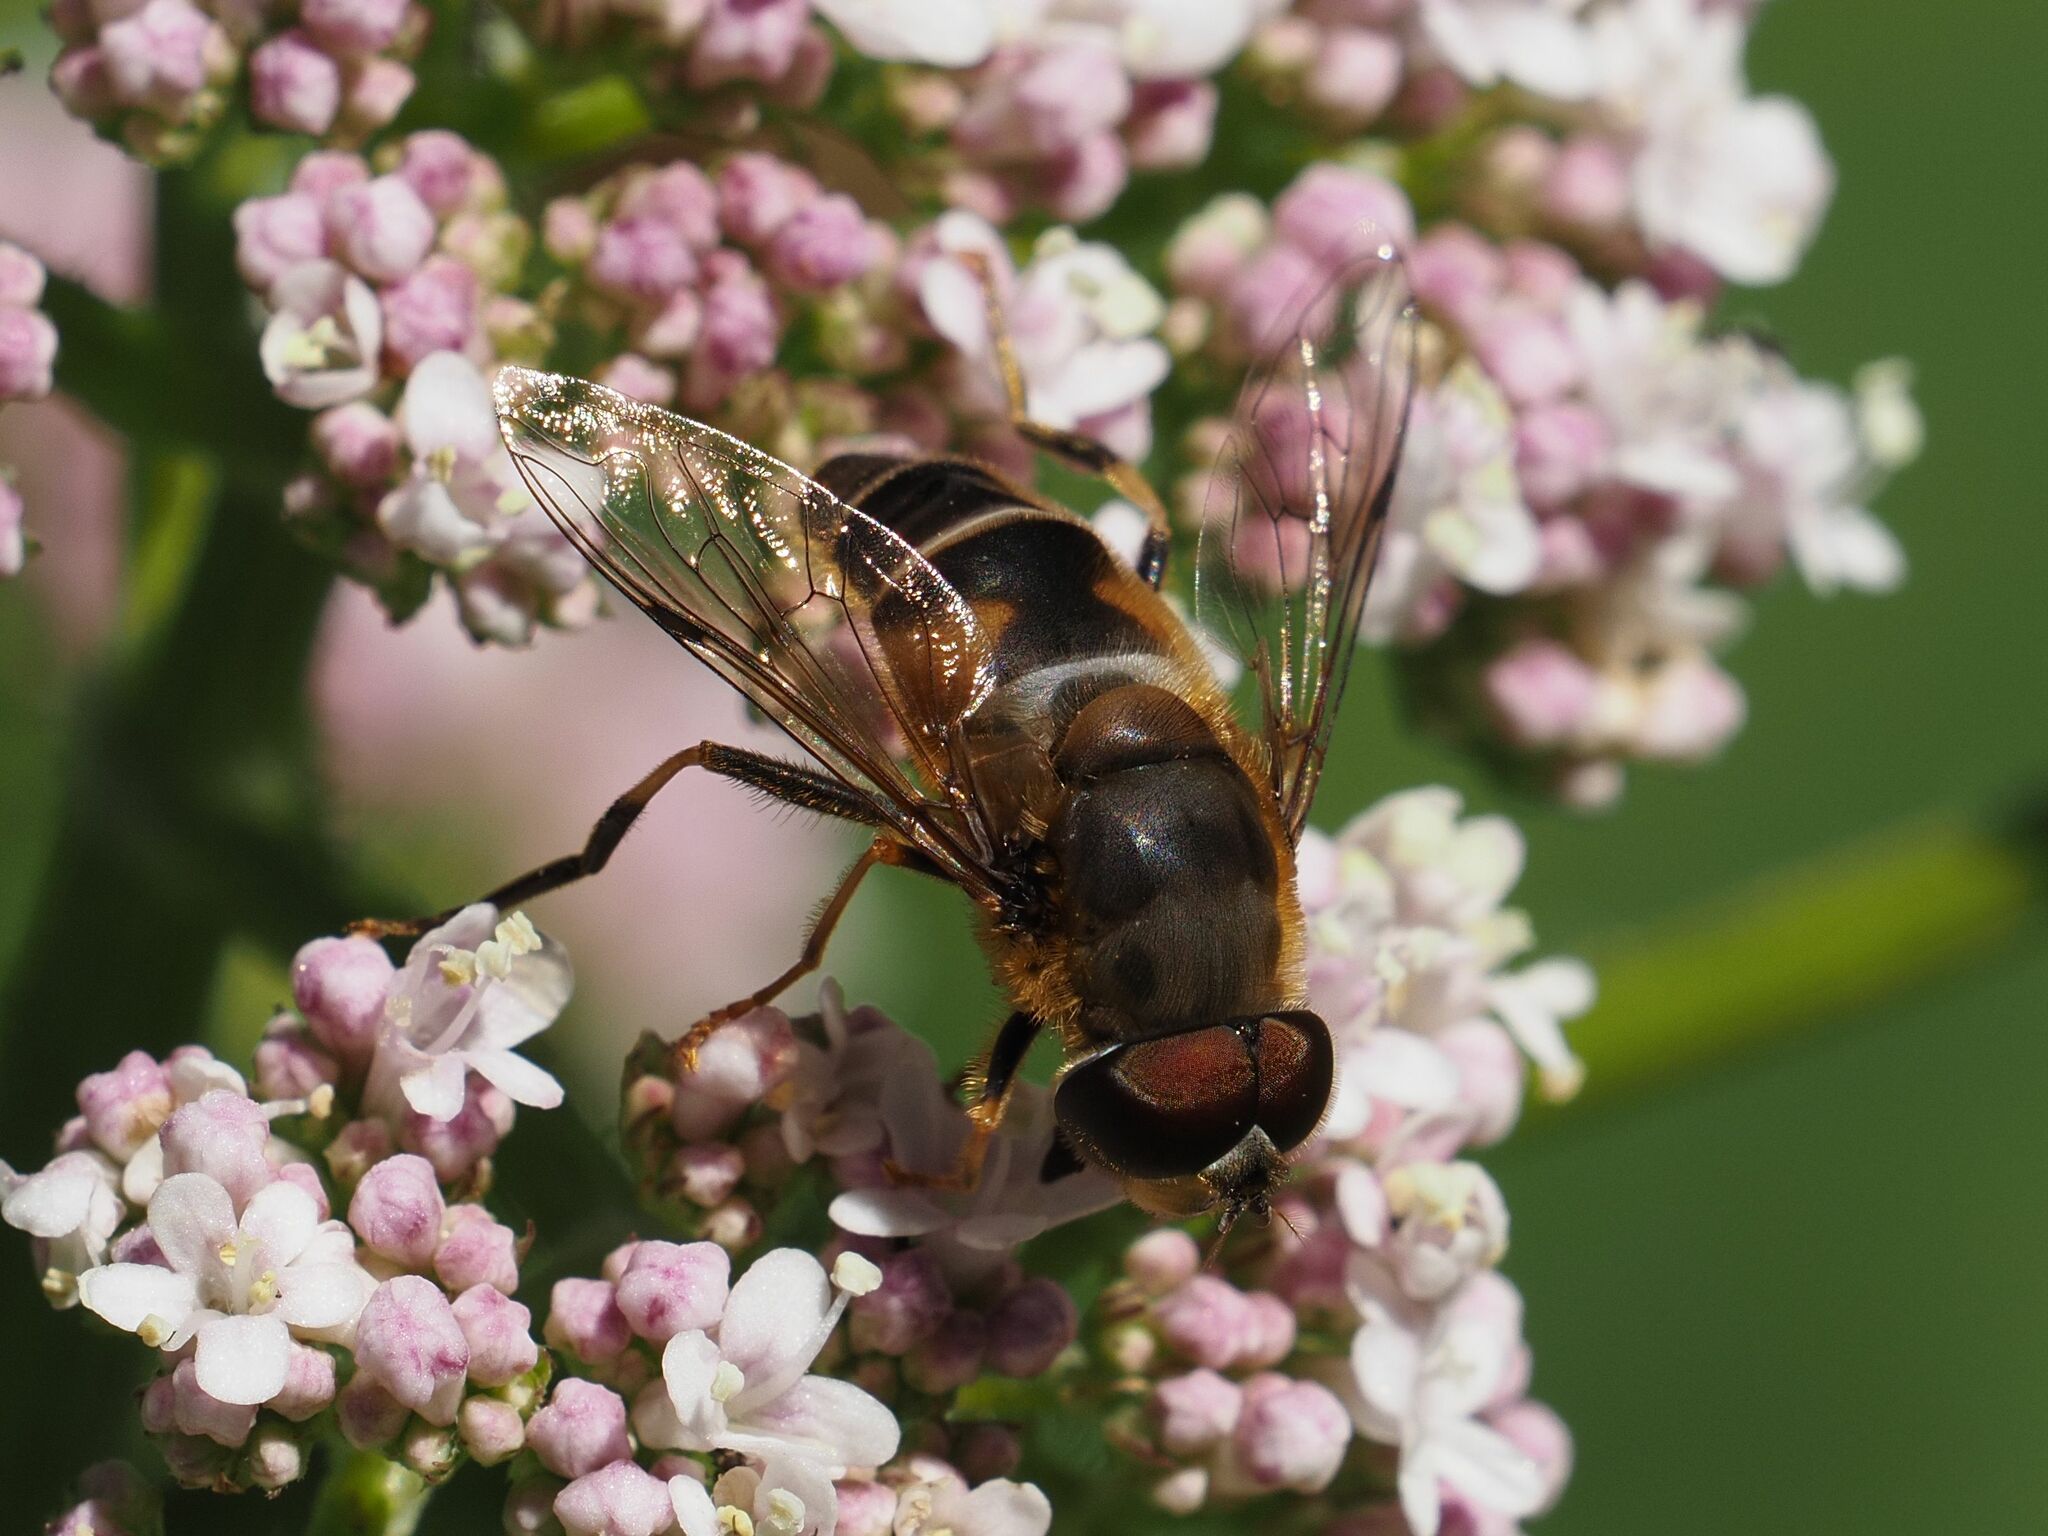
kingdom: Animalia
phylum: Arthropoda
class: Insecta
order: Diptera
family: Syrphidae
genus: Eristalis
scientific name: Eristalis pertinax
